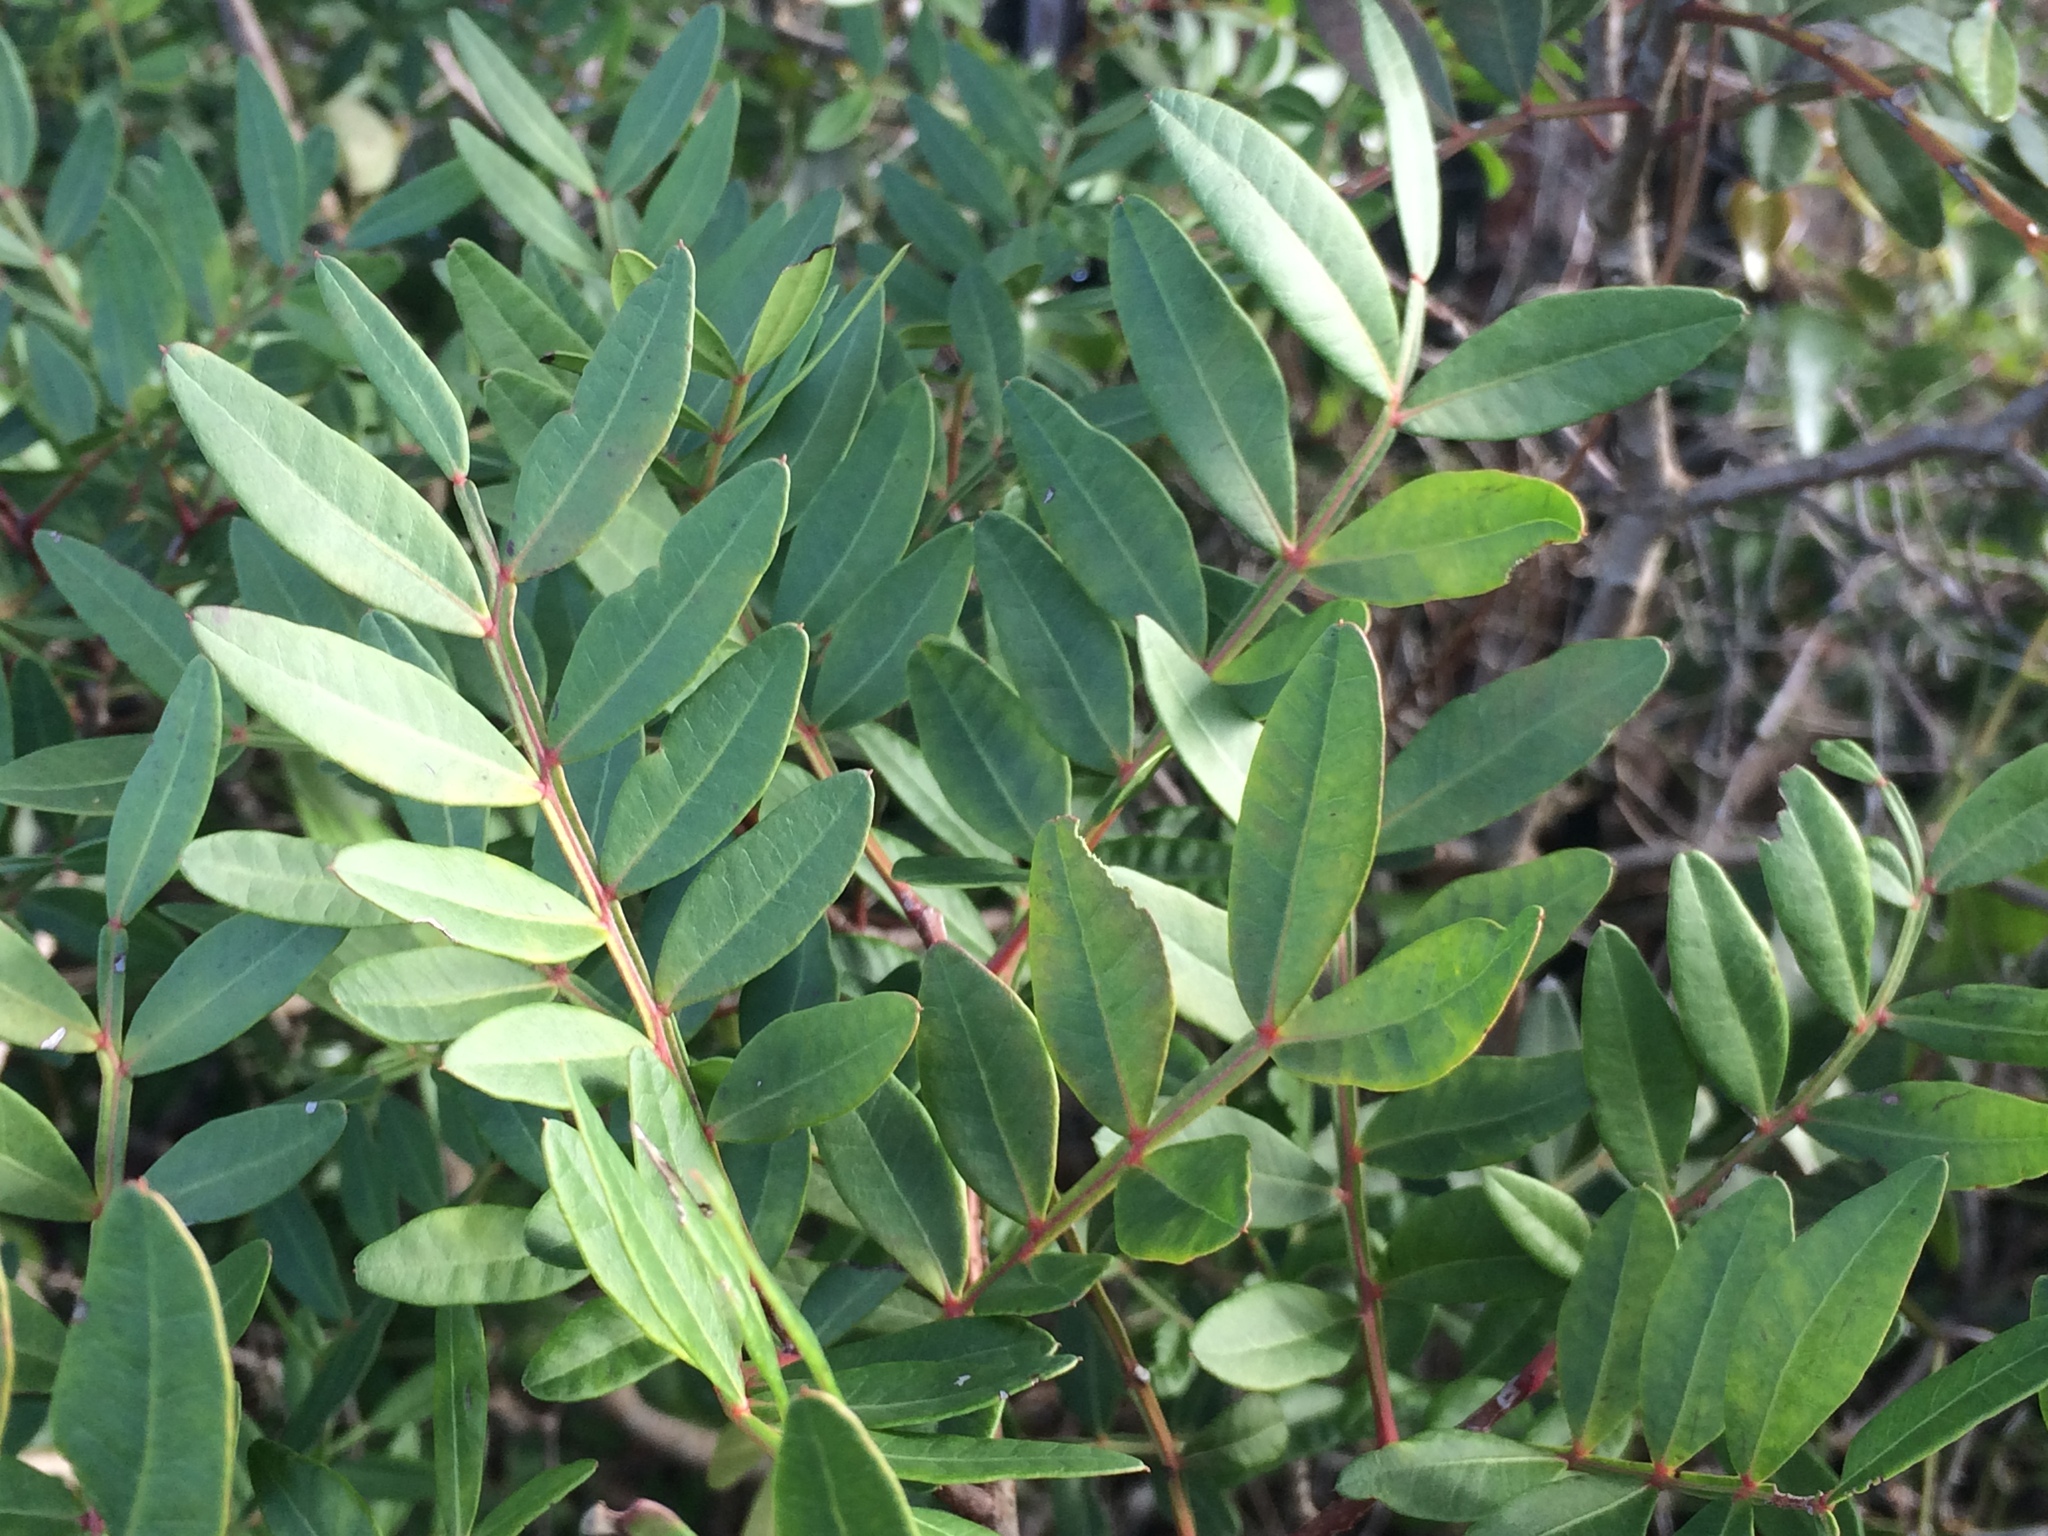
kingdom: Plantae
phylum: Tracheophyta
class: Magnoliopsida
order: Sapindales
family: Anacardiaceae
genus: Pistacia
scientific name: Pistacia lentiscus
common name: Lentisk
